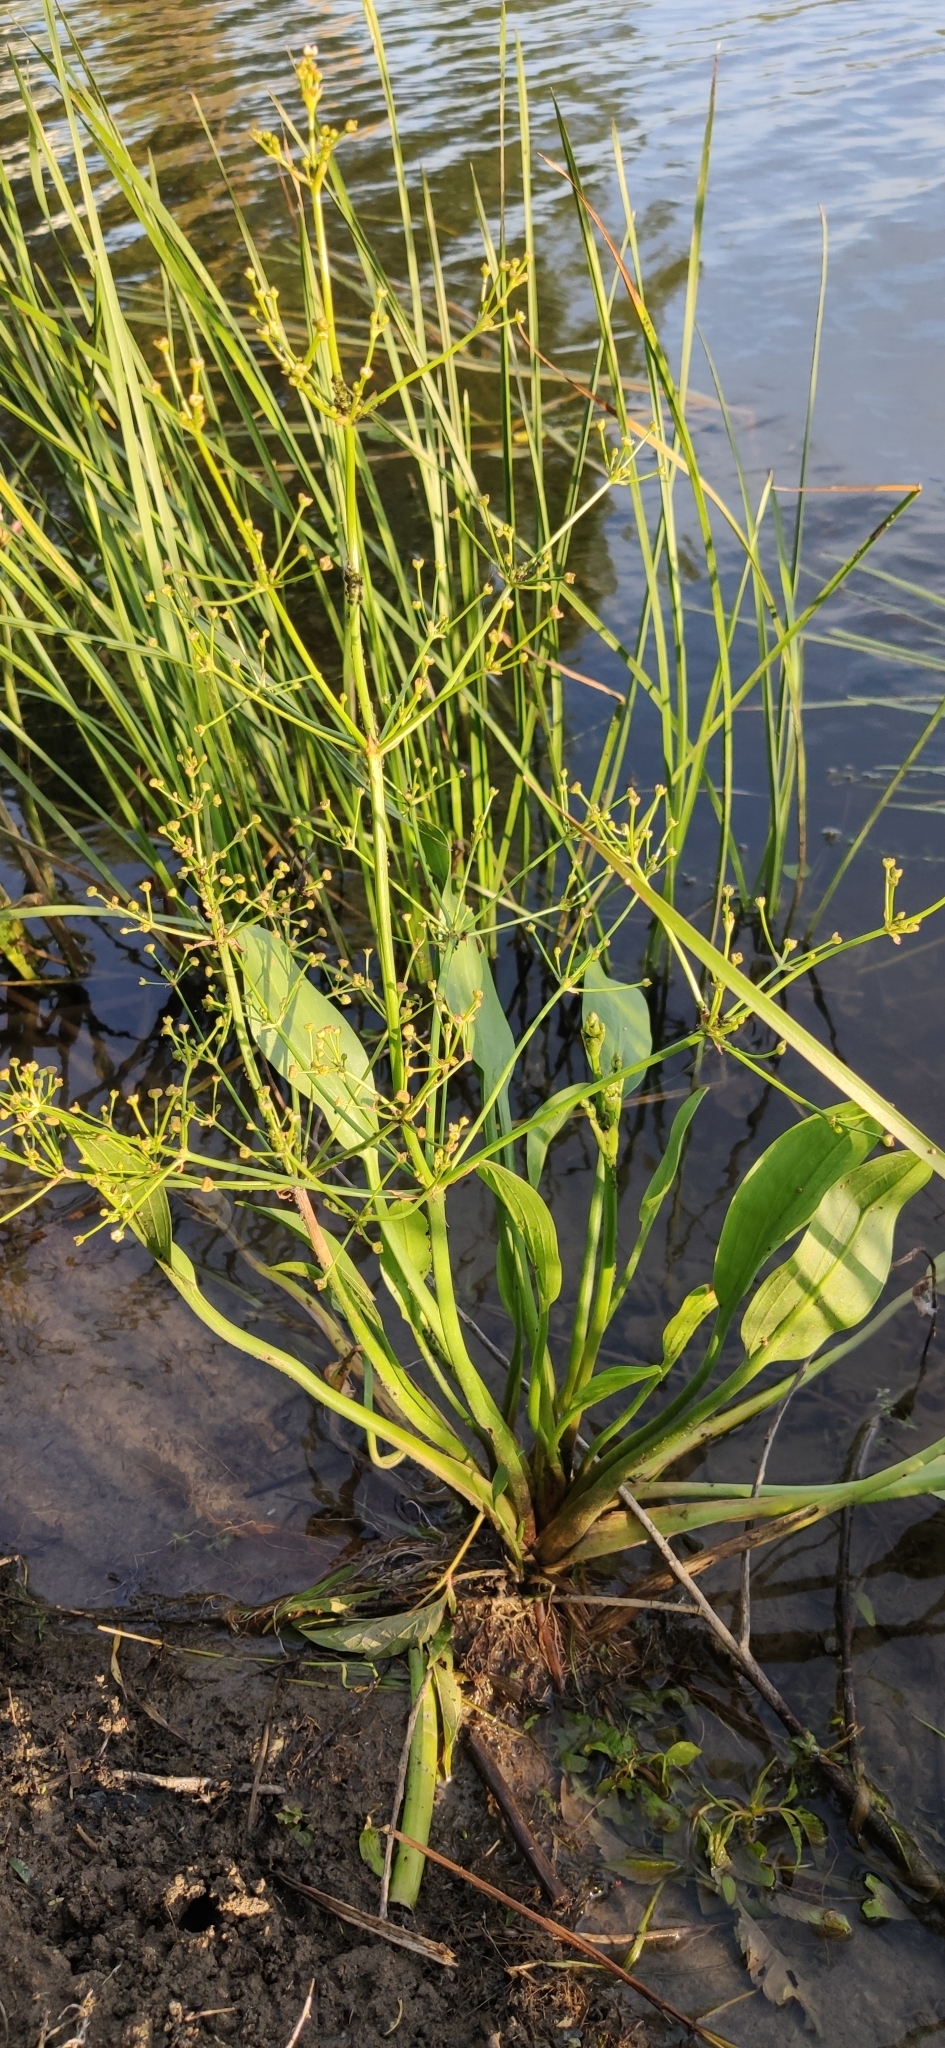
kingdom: Plantae
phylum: Tracheophyta
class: Liliopsida
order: Alismatales
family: Alismataceae
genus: Alisma
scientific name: Alisma plantago-aquatica
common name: Water-plantain
